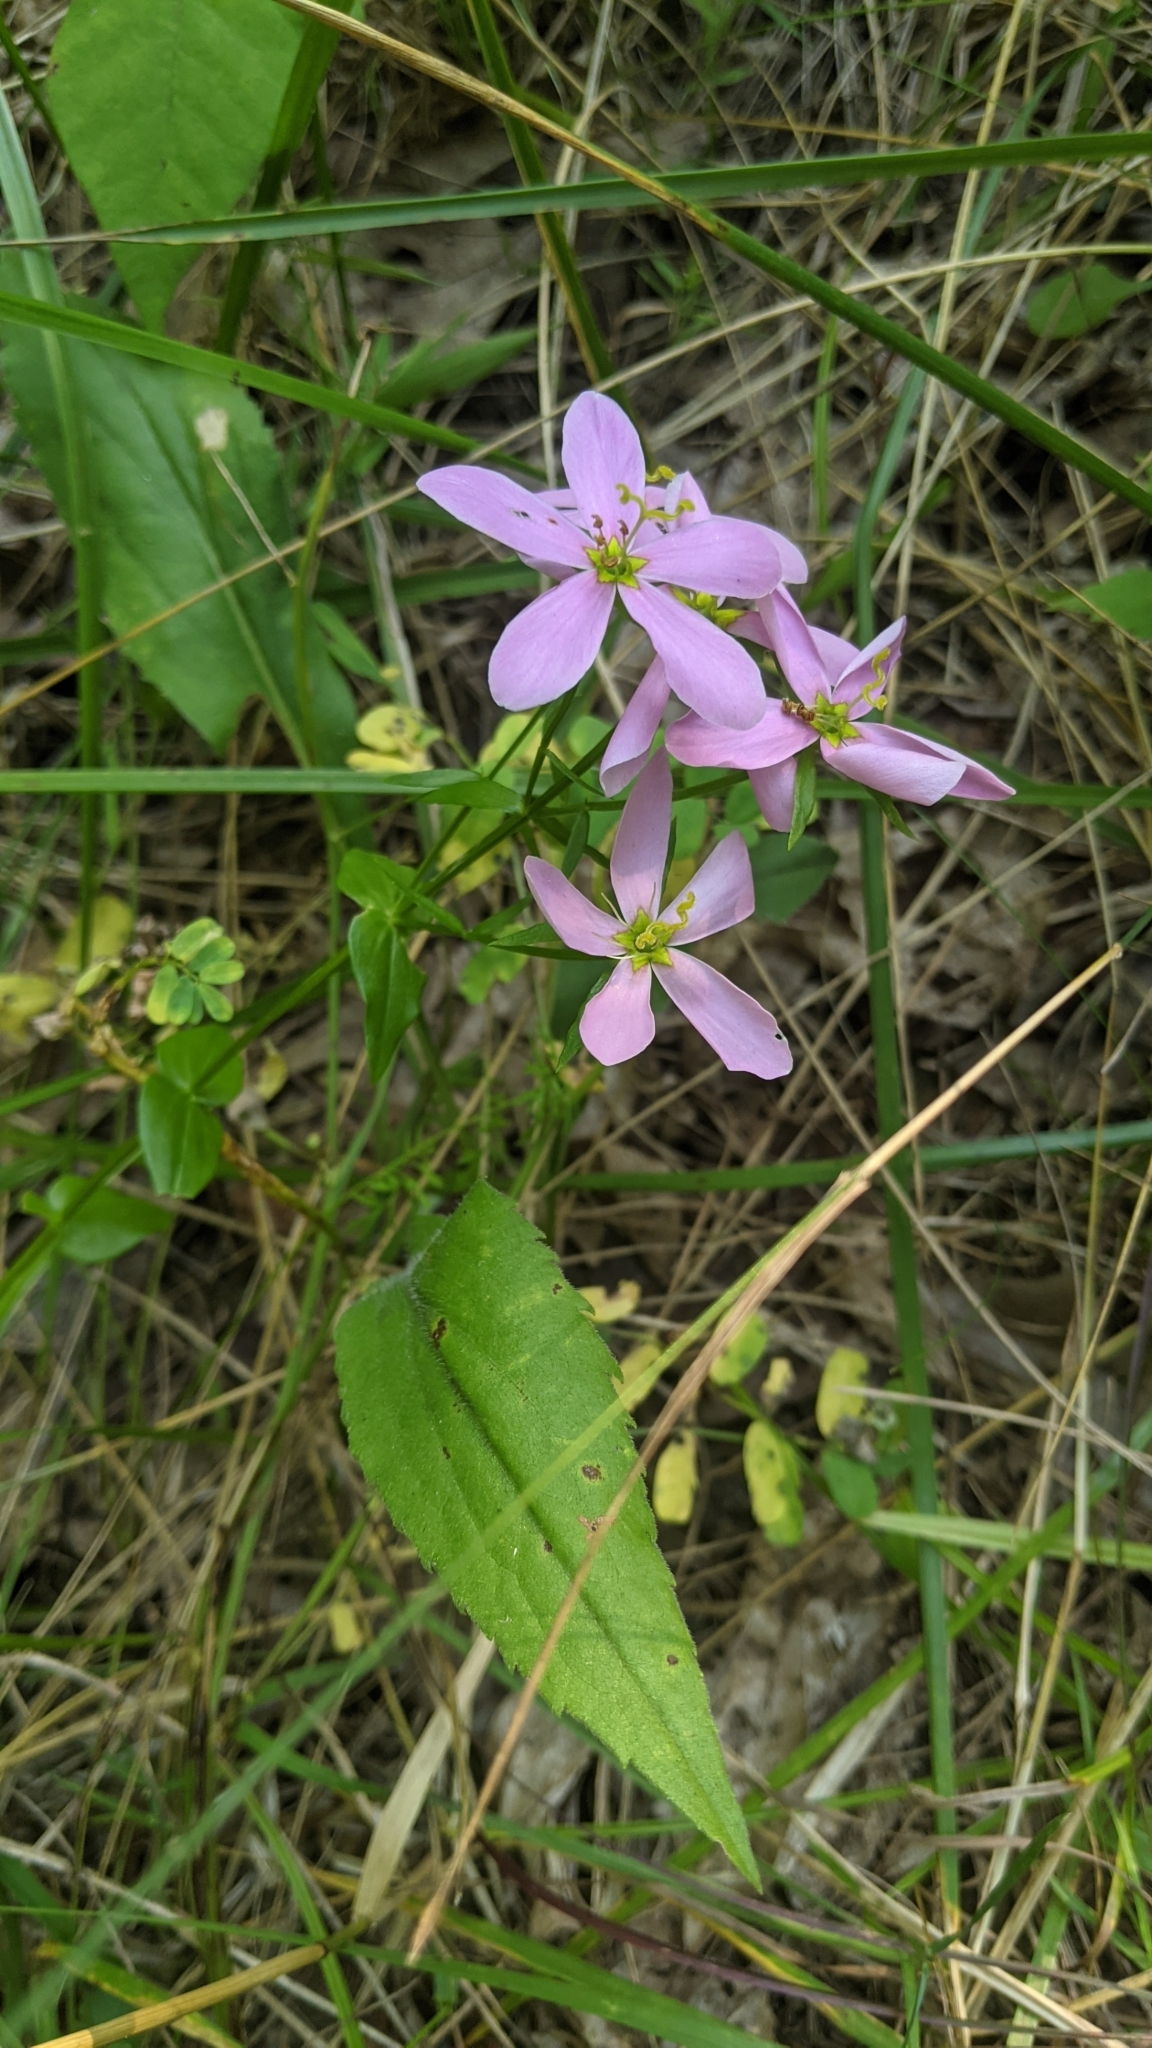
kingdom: Plantae
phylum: Tracheophyta
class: Magnoliopsida
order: Gentianales
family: Gentianaceae
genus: Sabatia
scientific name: Sabatia angularis
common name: Rose-pink
